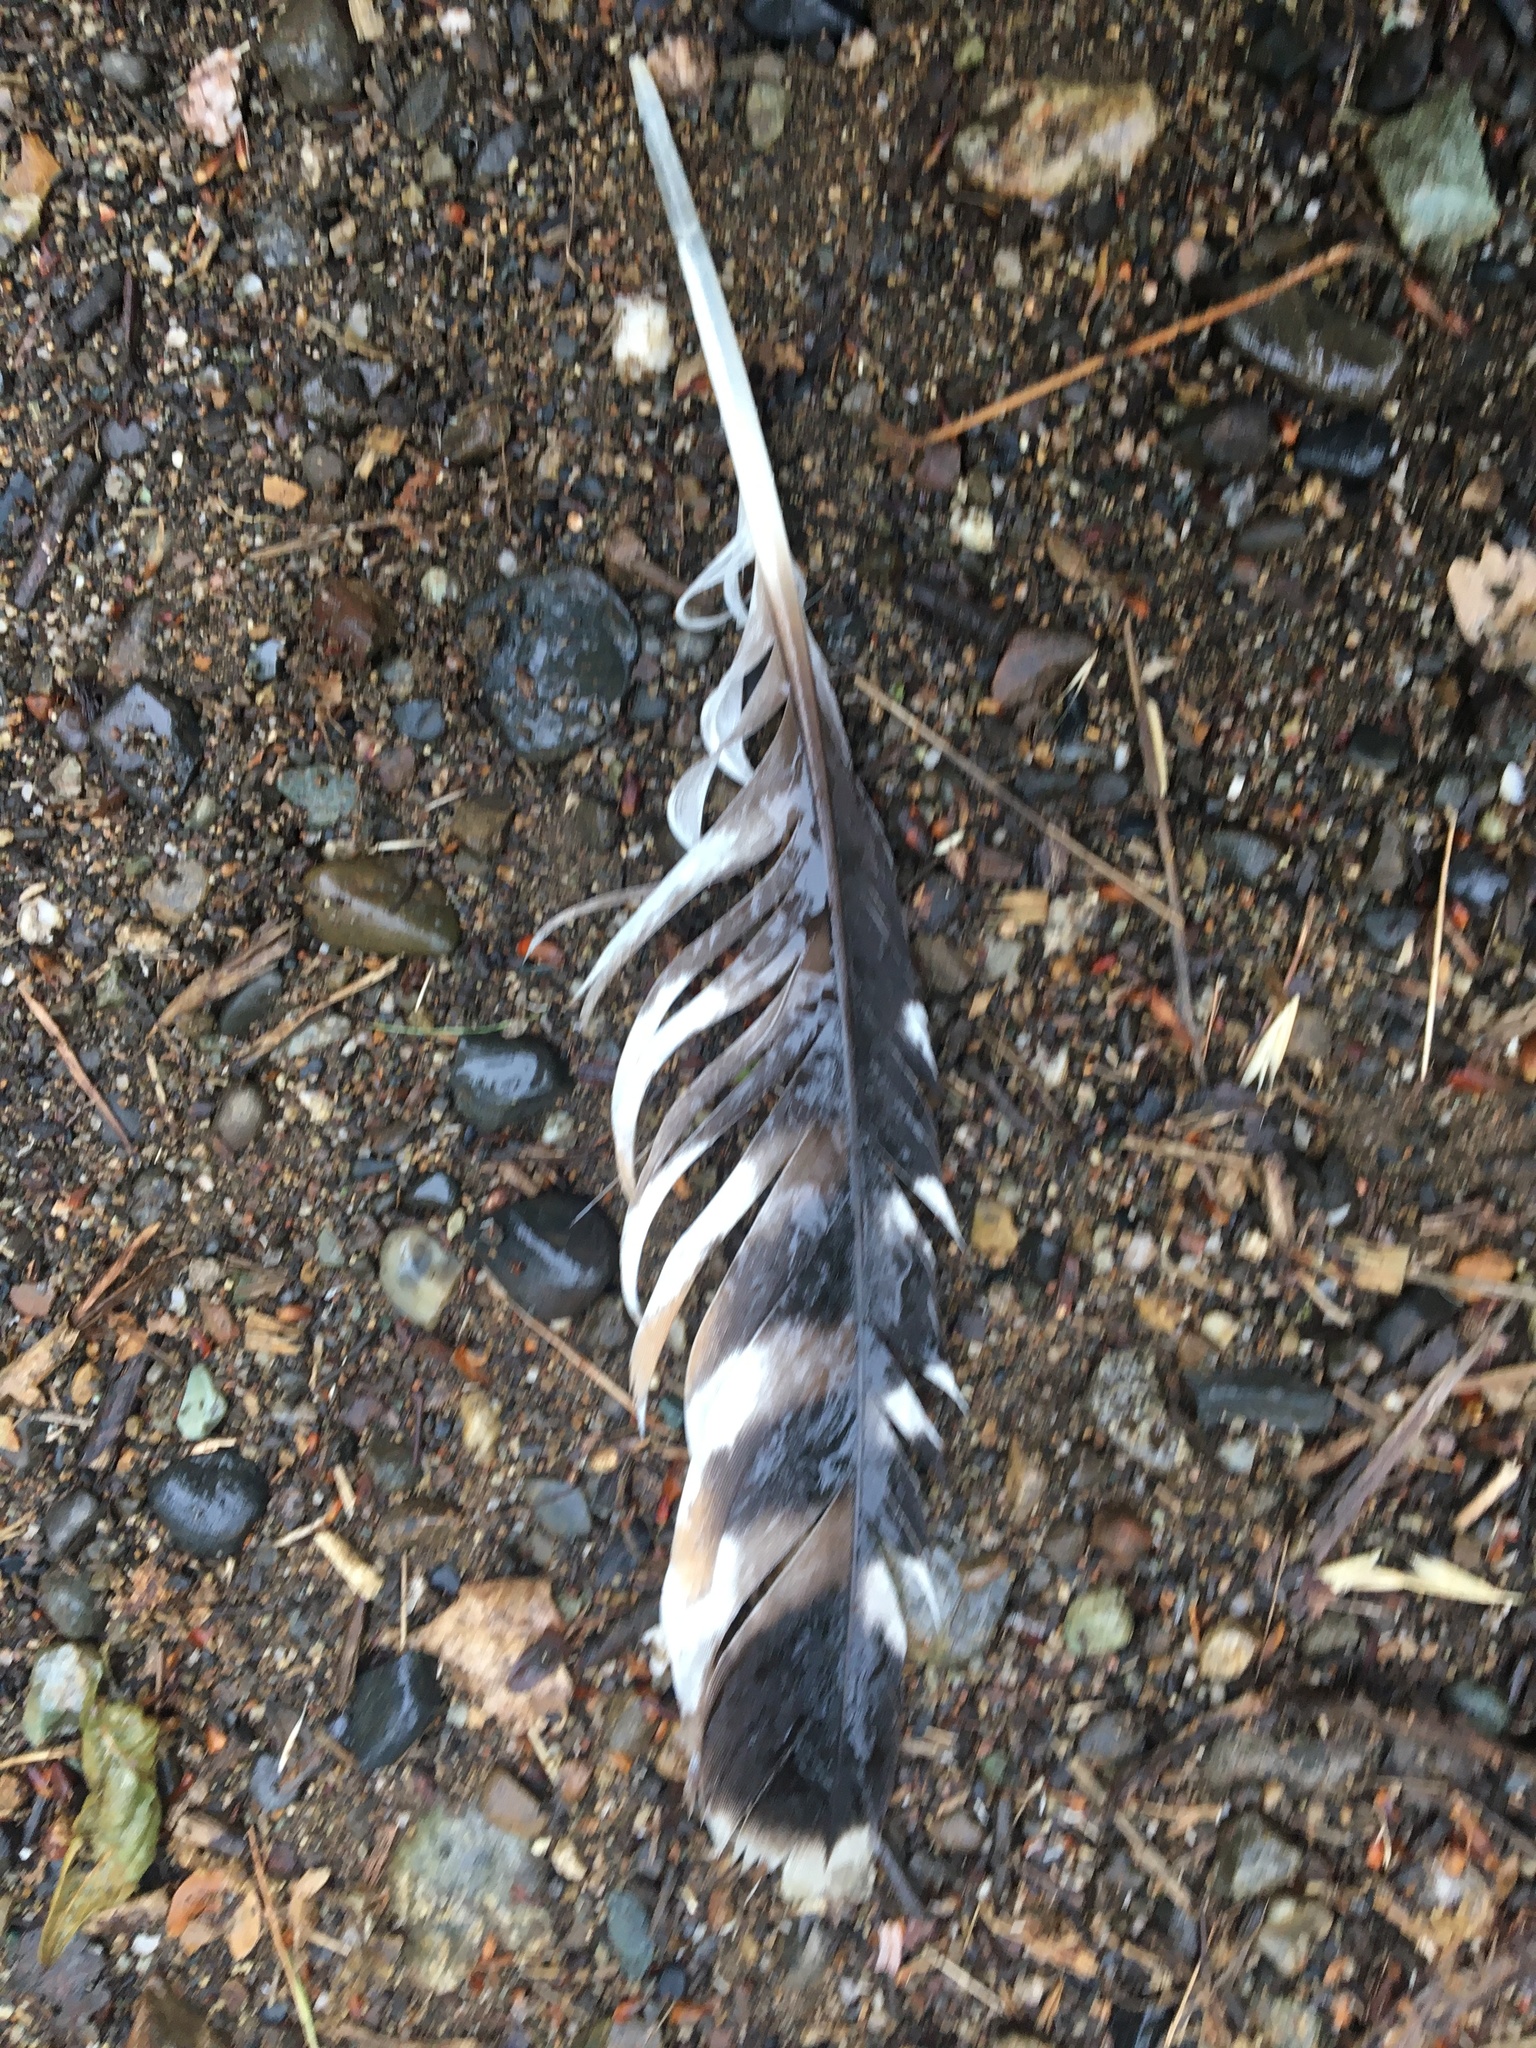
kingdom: Animalia
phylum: Chordata
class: Aves
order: Accipitriformes
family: Accipitridae
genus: Buteo
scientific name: Buteo lineatus
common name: Red-shouldered hawk
